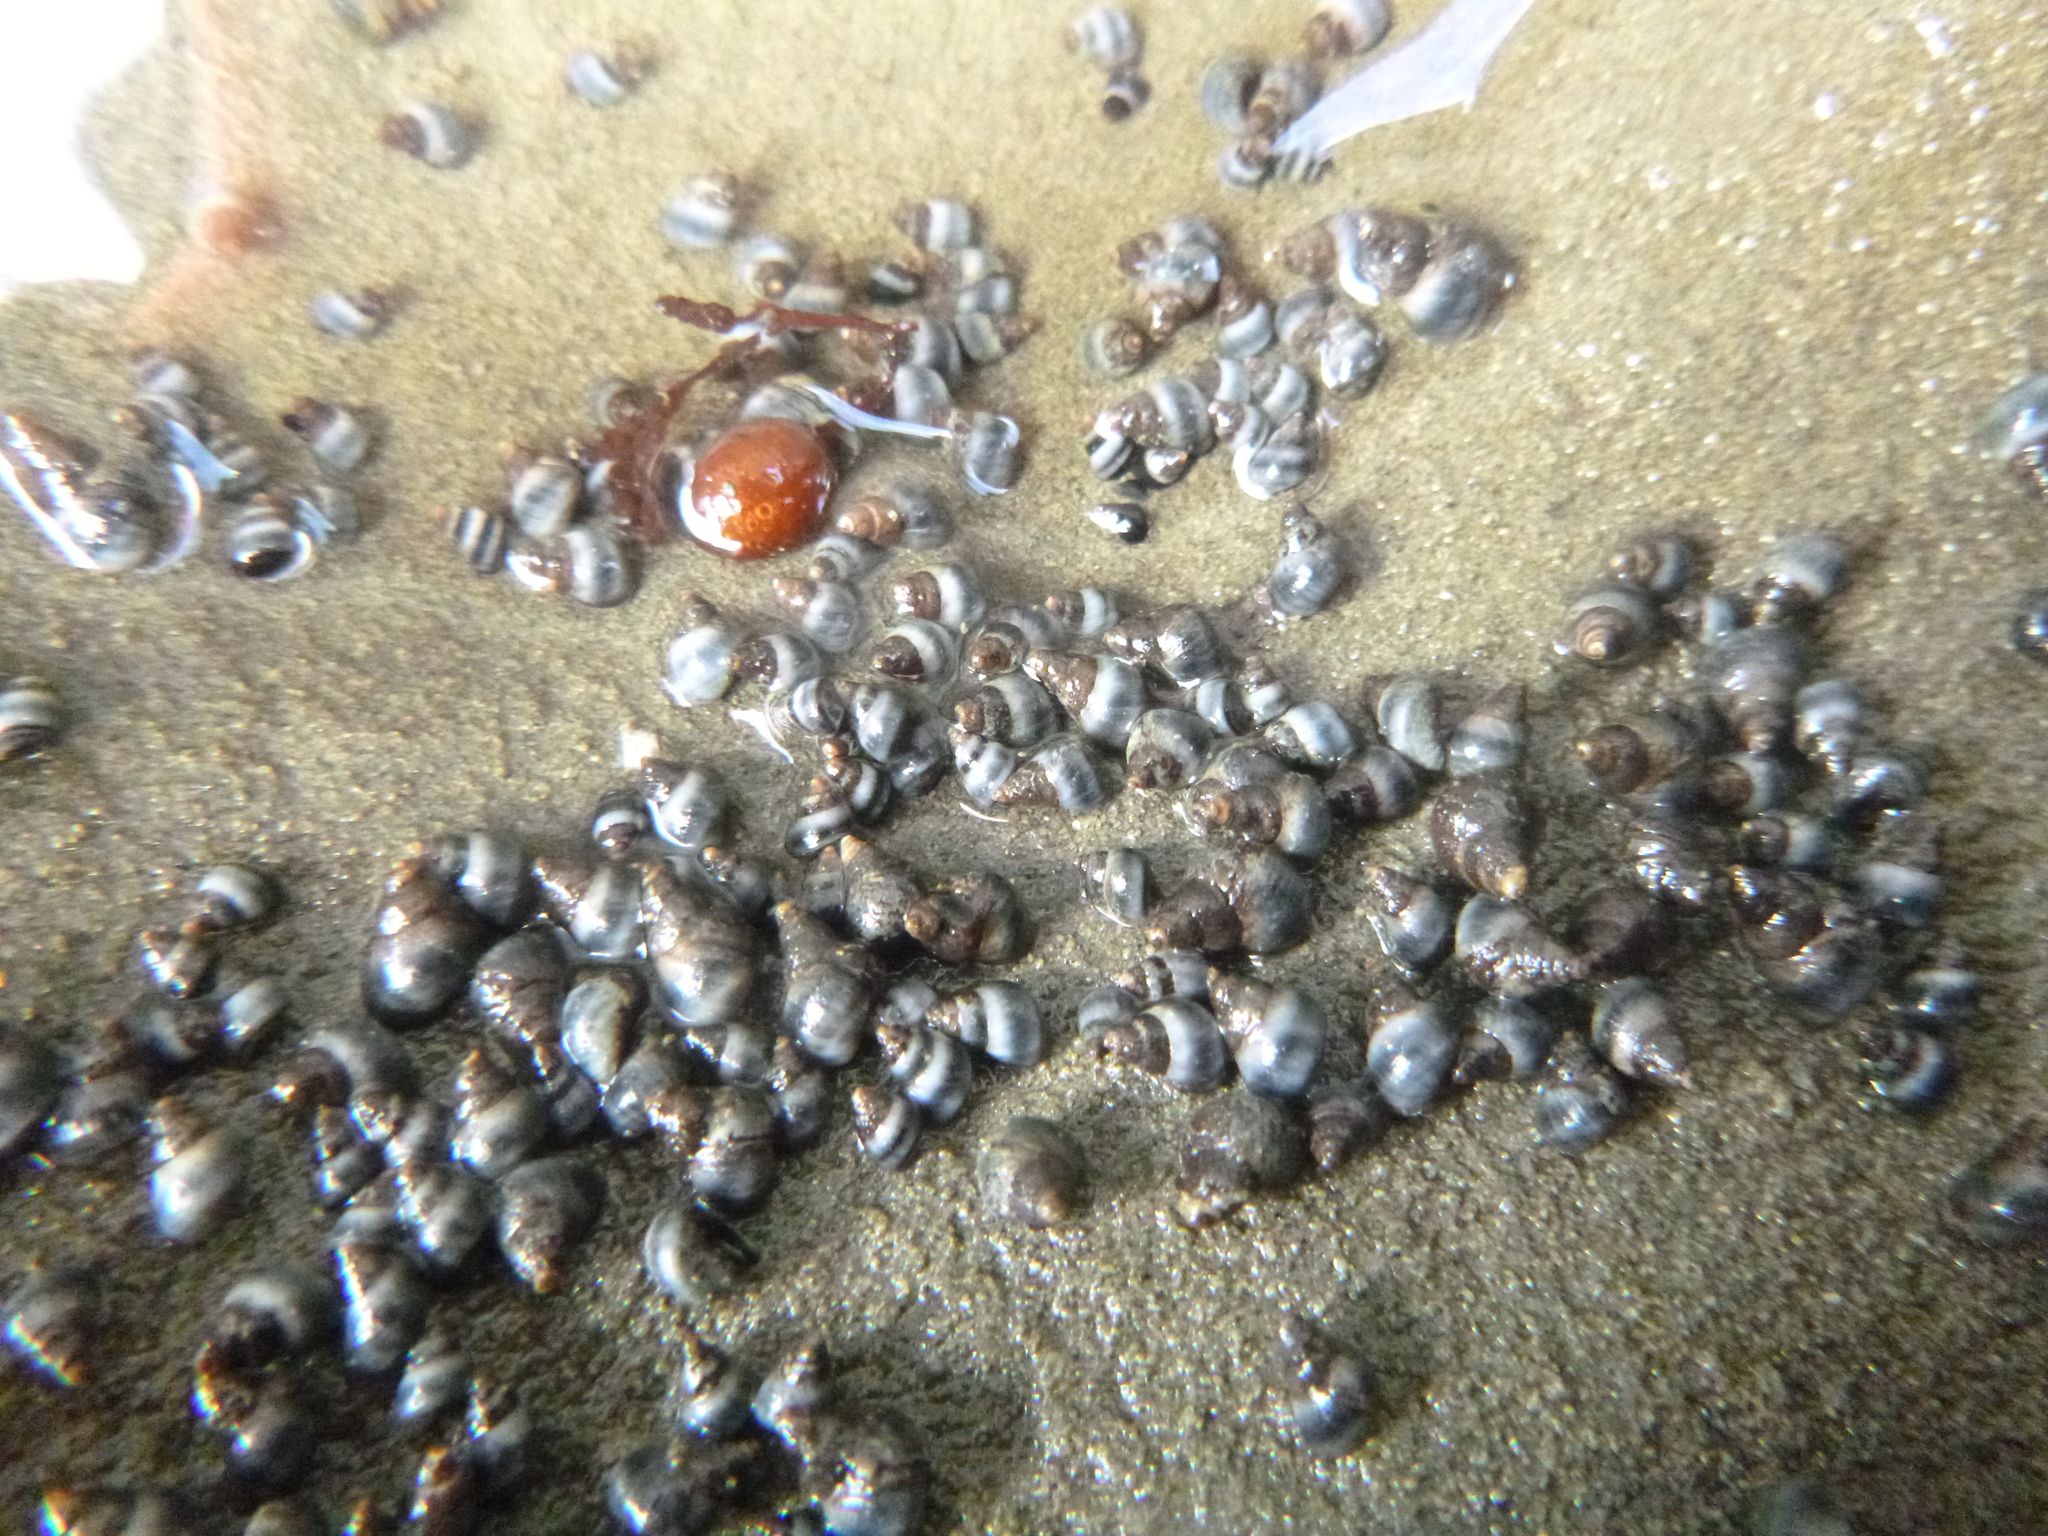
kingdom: Animalia
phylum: Mollusca
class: Gastropoda
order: Littorinimorpha
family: Littorinidae
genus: Austrolittorina
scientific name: Austrolittorina antipodum
